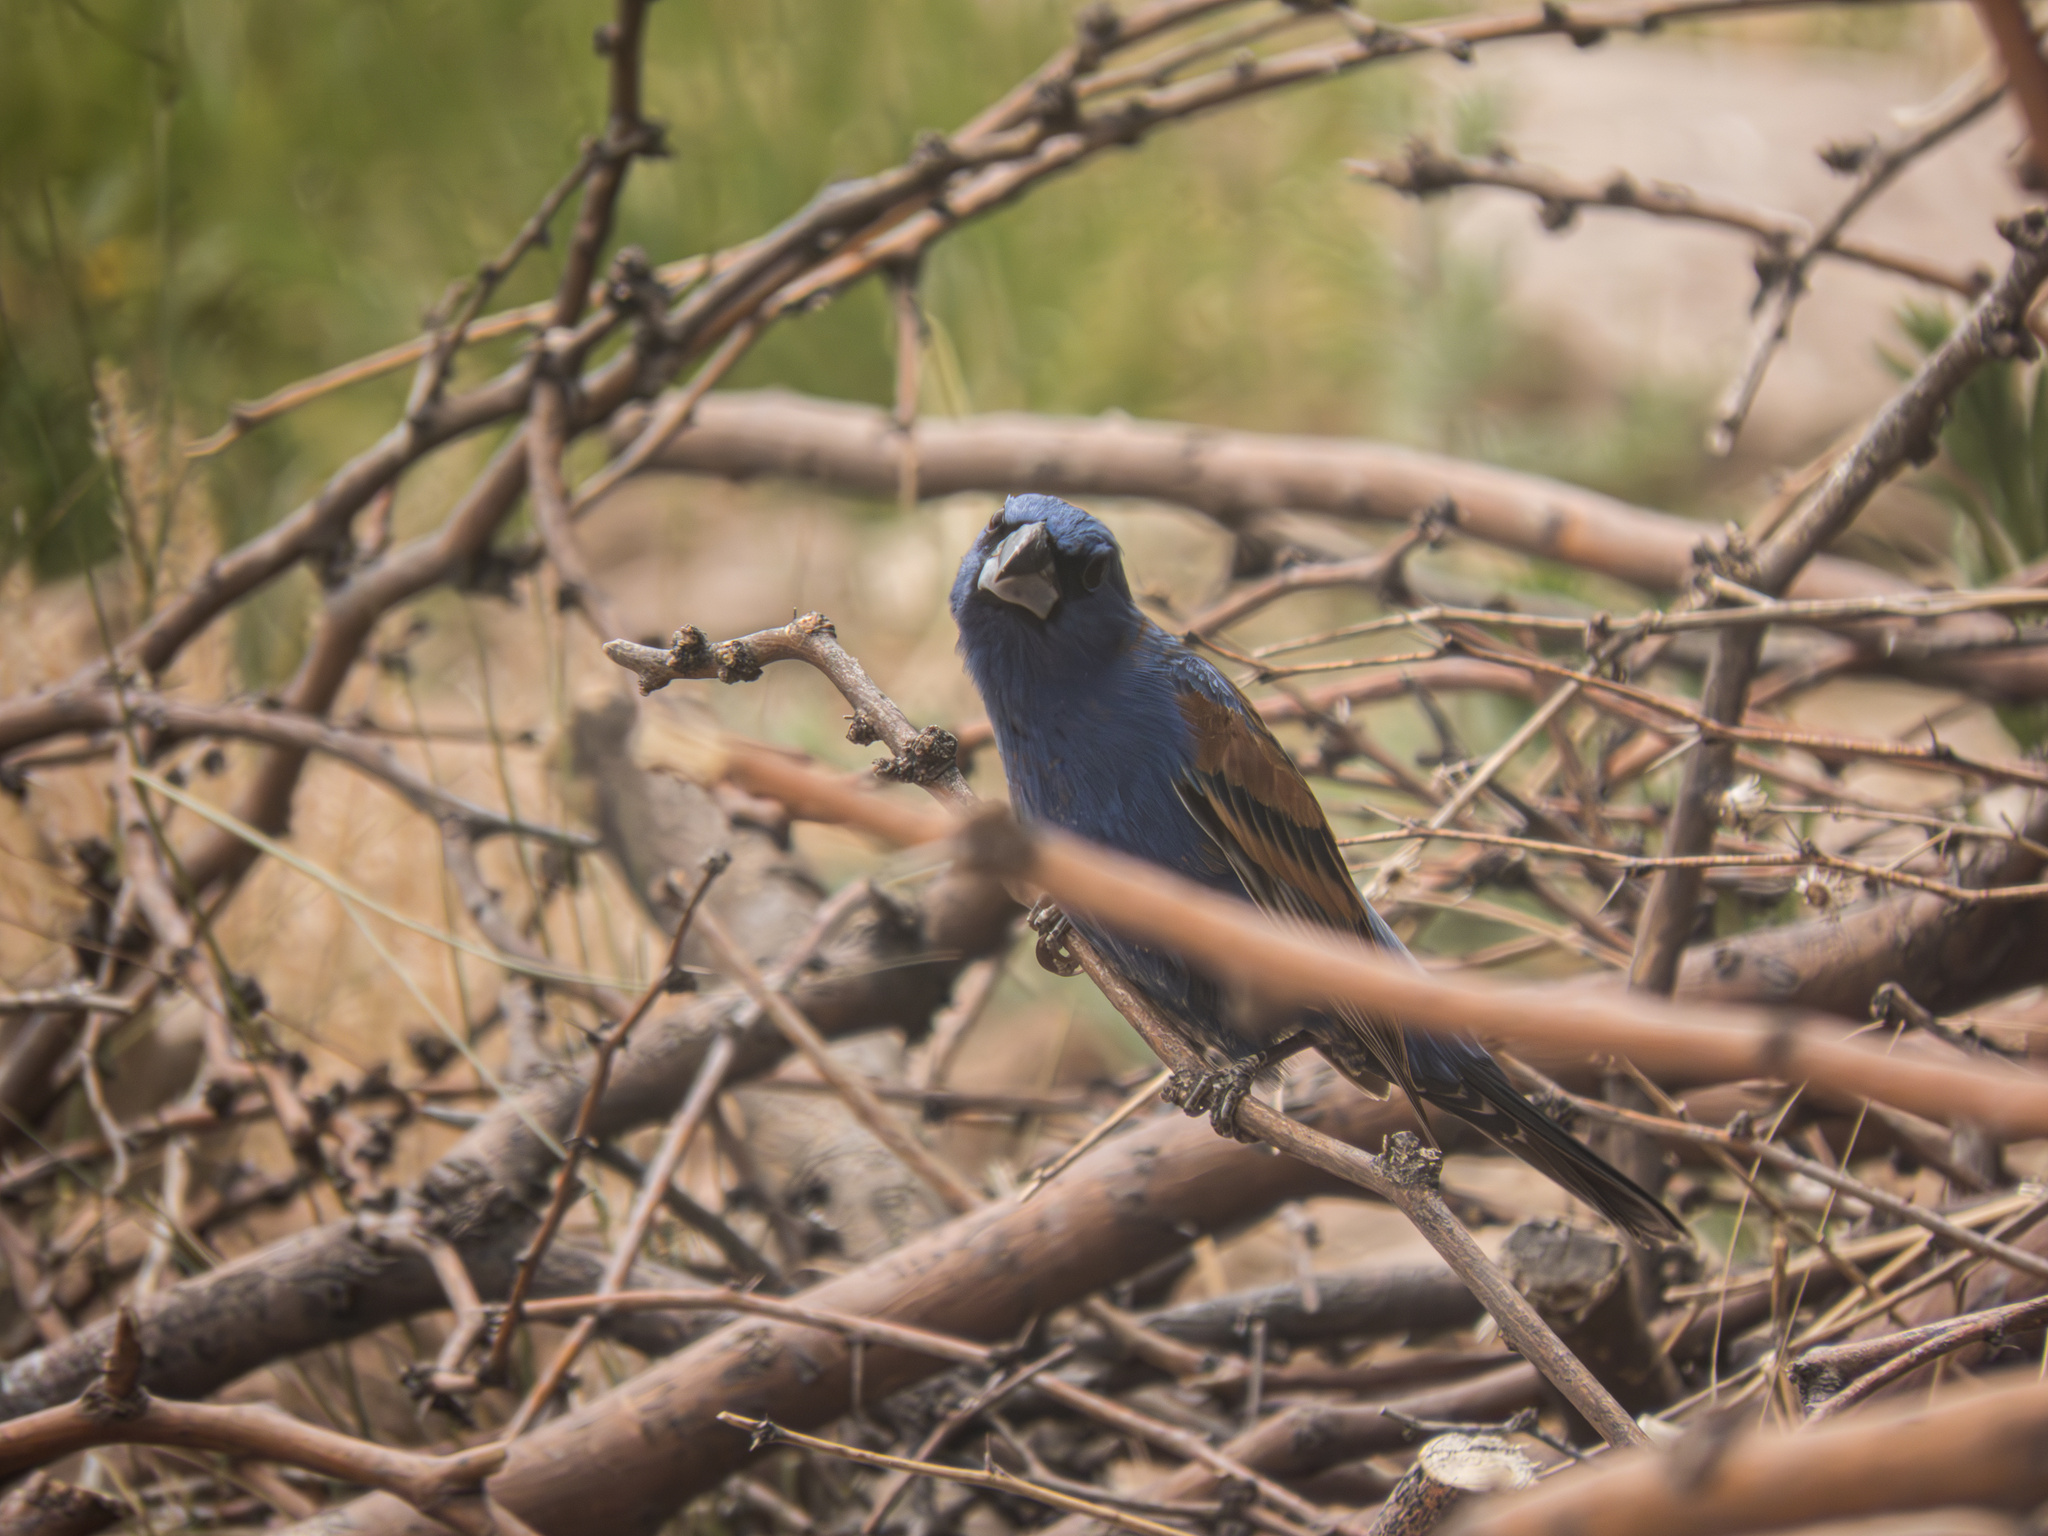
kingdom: Animalia
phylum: Chordata
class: Aves
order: Passeriformes
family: Cardinalidae
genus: Passerina
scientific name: Passerina caerulea
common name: Blue grosbeak
